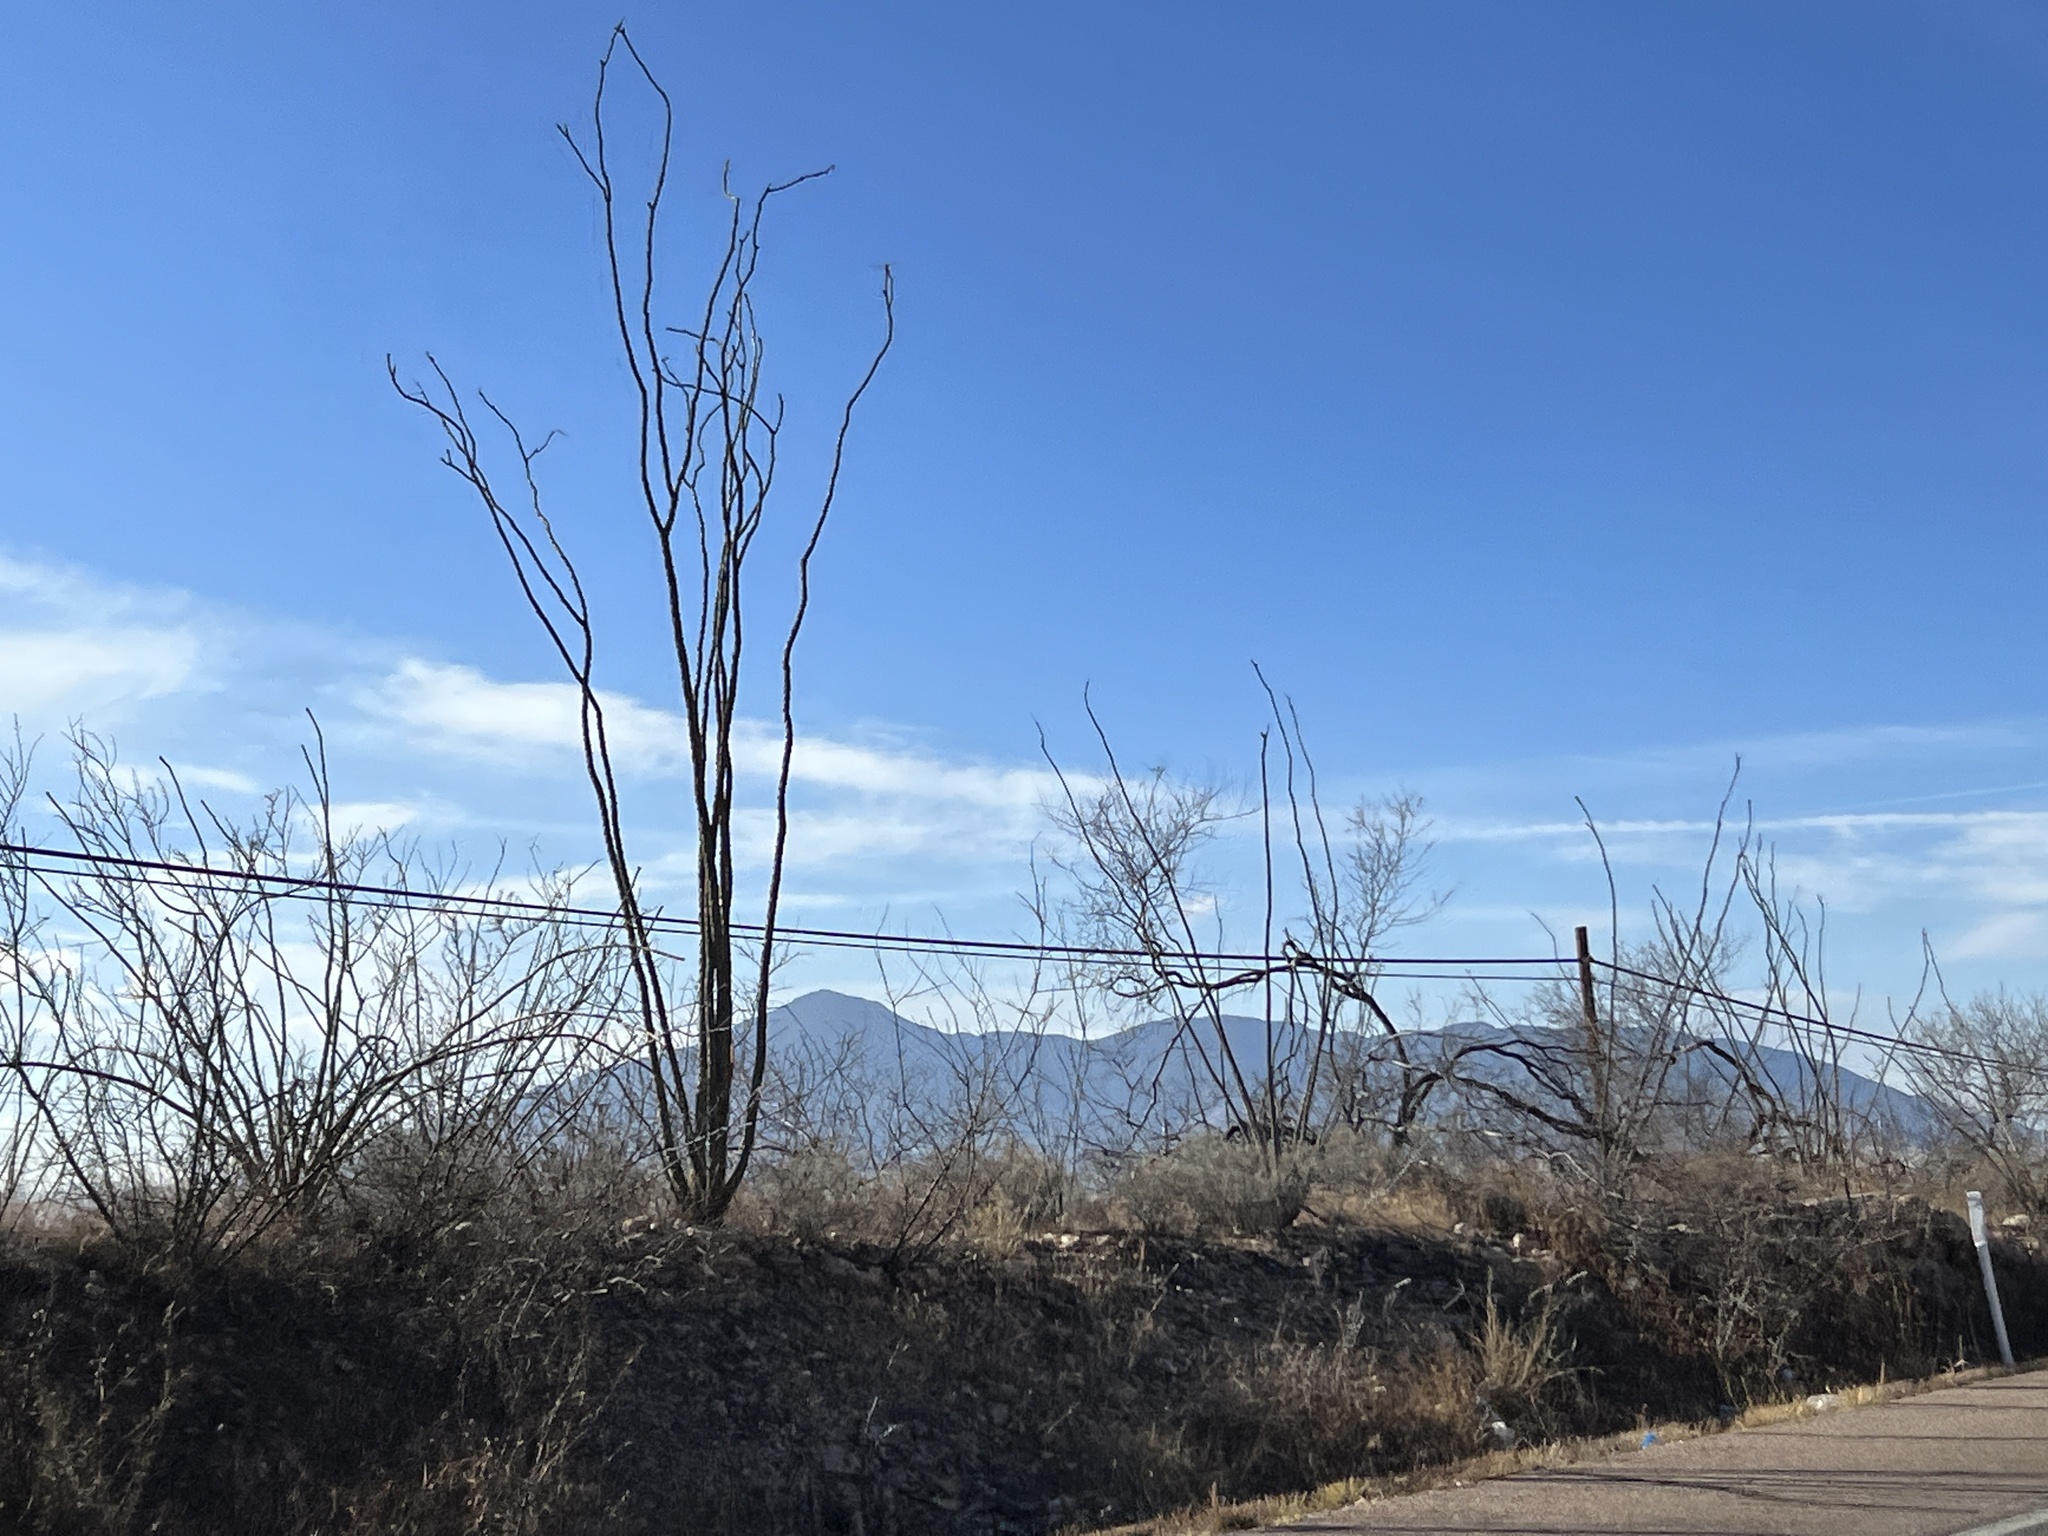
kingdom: Plantae
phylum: Tracheophyta
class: Magnoliopsida
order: Ericales
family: Fouquieriaceae
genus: Fouquieria
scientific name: Fouquieria splendens
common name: Vine-cactus
